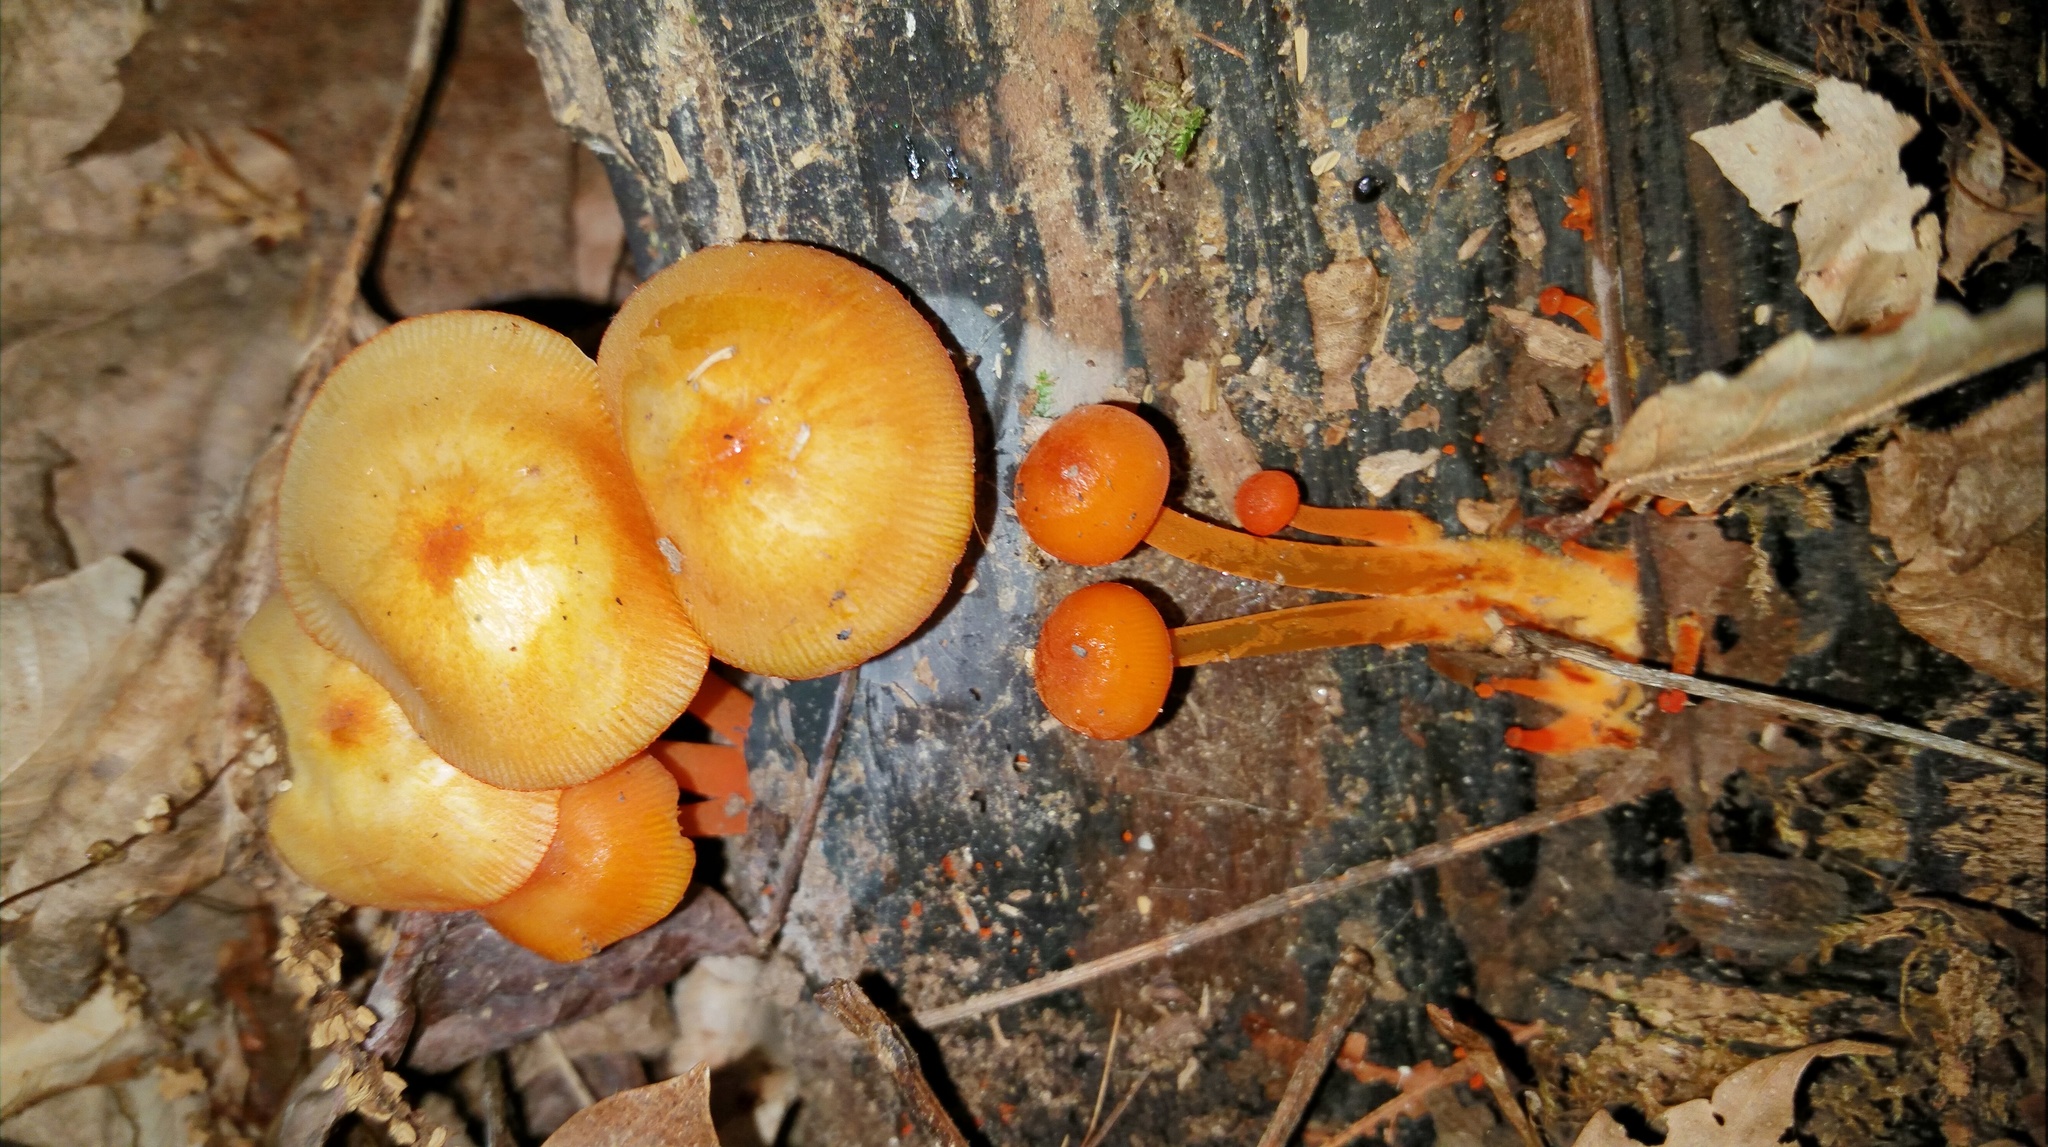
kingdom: Fungi
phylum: Basidiomycota
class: Agaricomycetes
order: Agaricales
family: Mycenaceae
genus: Mycena
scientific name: Mycena leaiana
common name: Orange mycena
